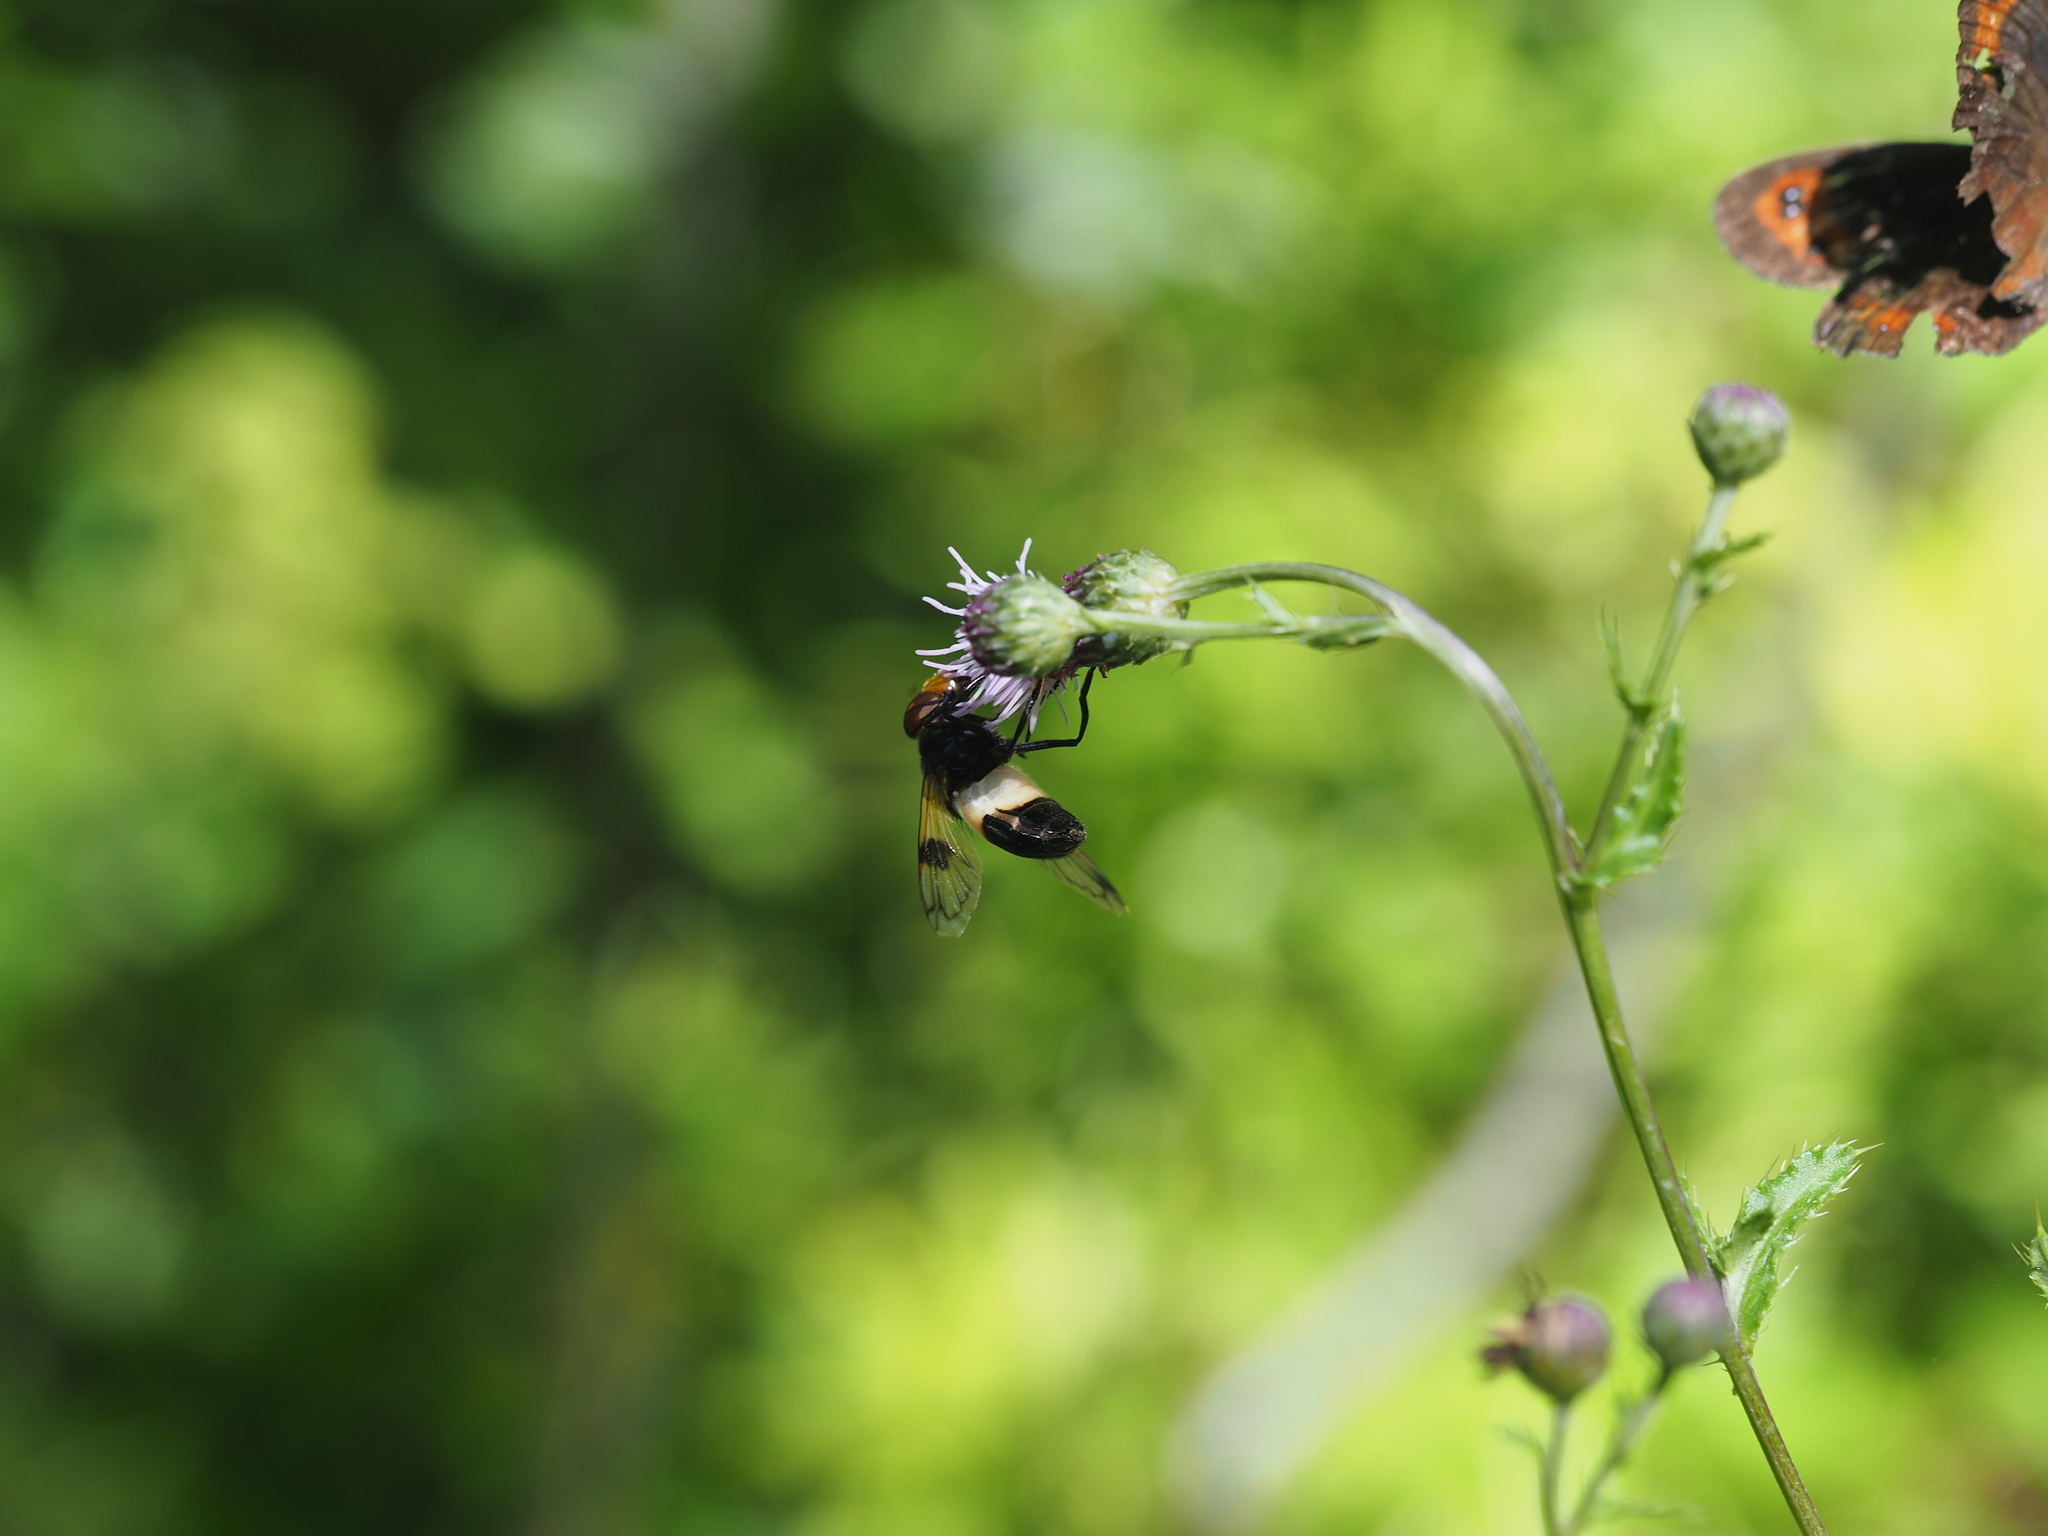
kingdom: Animalia
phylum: Arthropoda
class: Insecta
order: Diptera
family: Syrphidae
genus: Volucella
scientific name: Volucella pellucens
